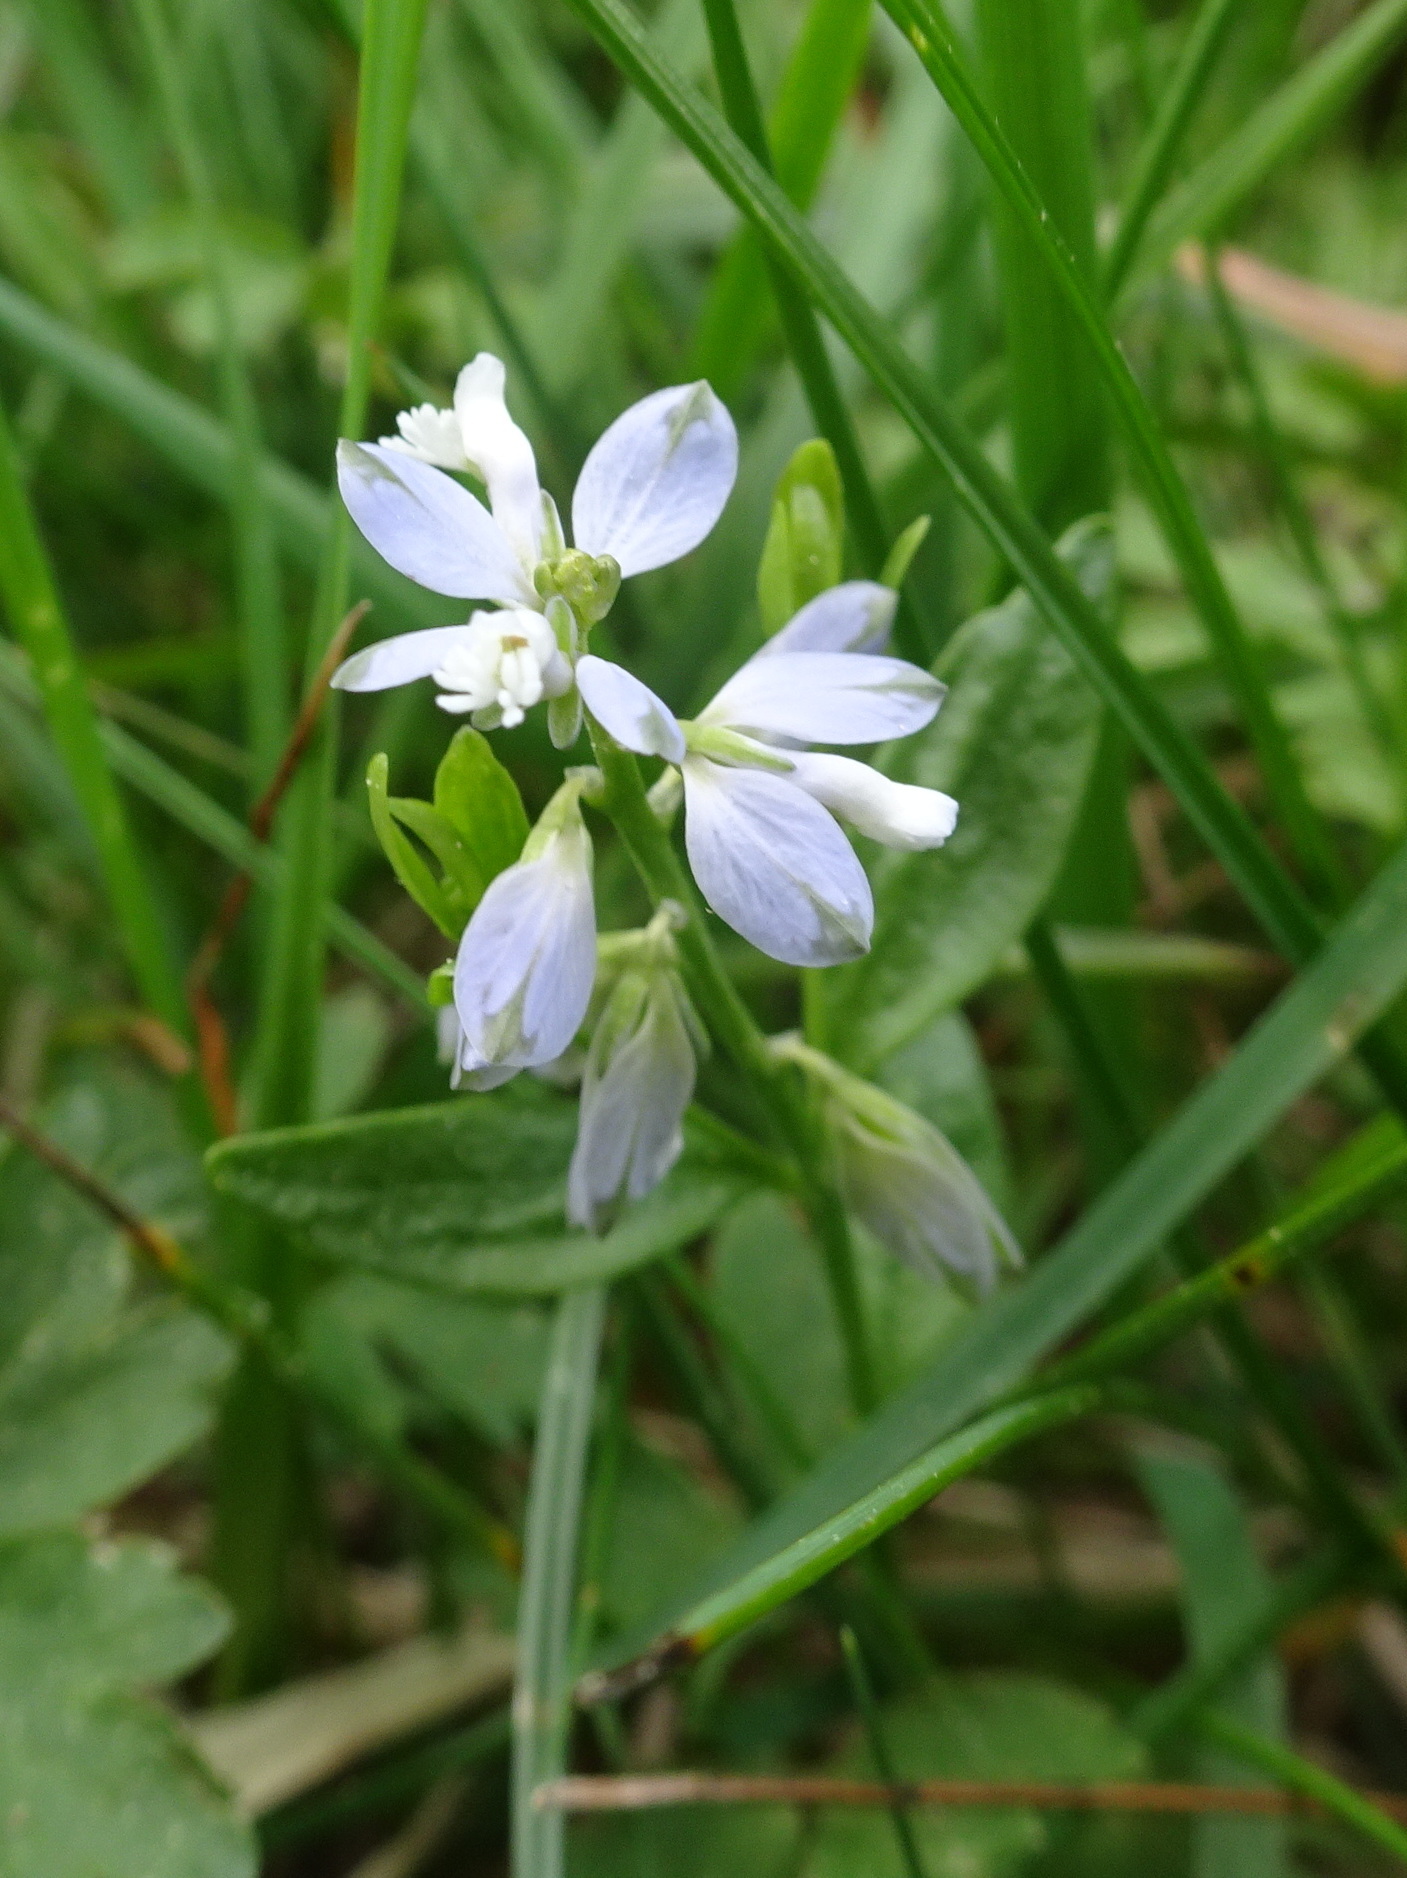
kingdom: Plantae
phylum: Tracheophyta
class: Magnoliopsida
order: Fabales
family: Polygalaceae
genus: Polygala
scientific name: Polygala serpyllifolia
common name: Heath milkwort
